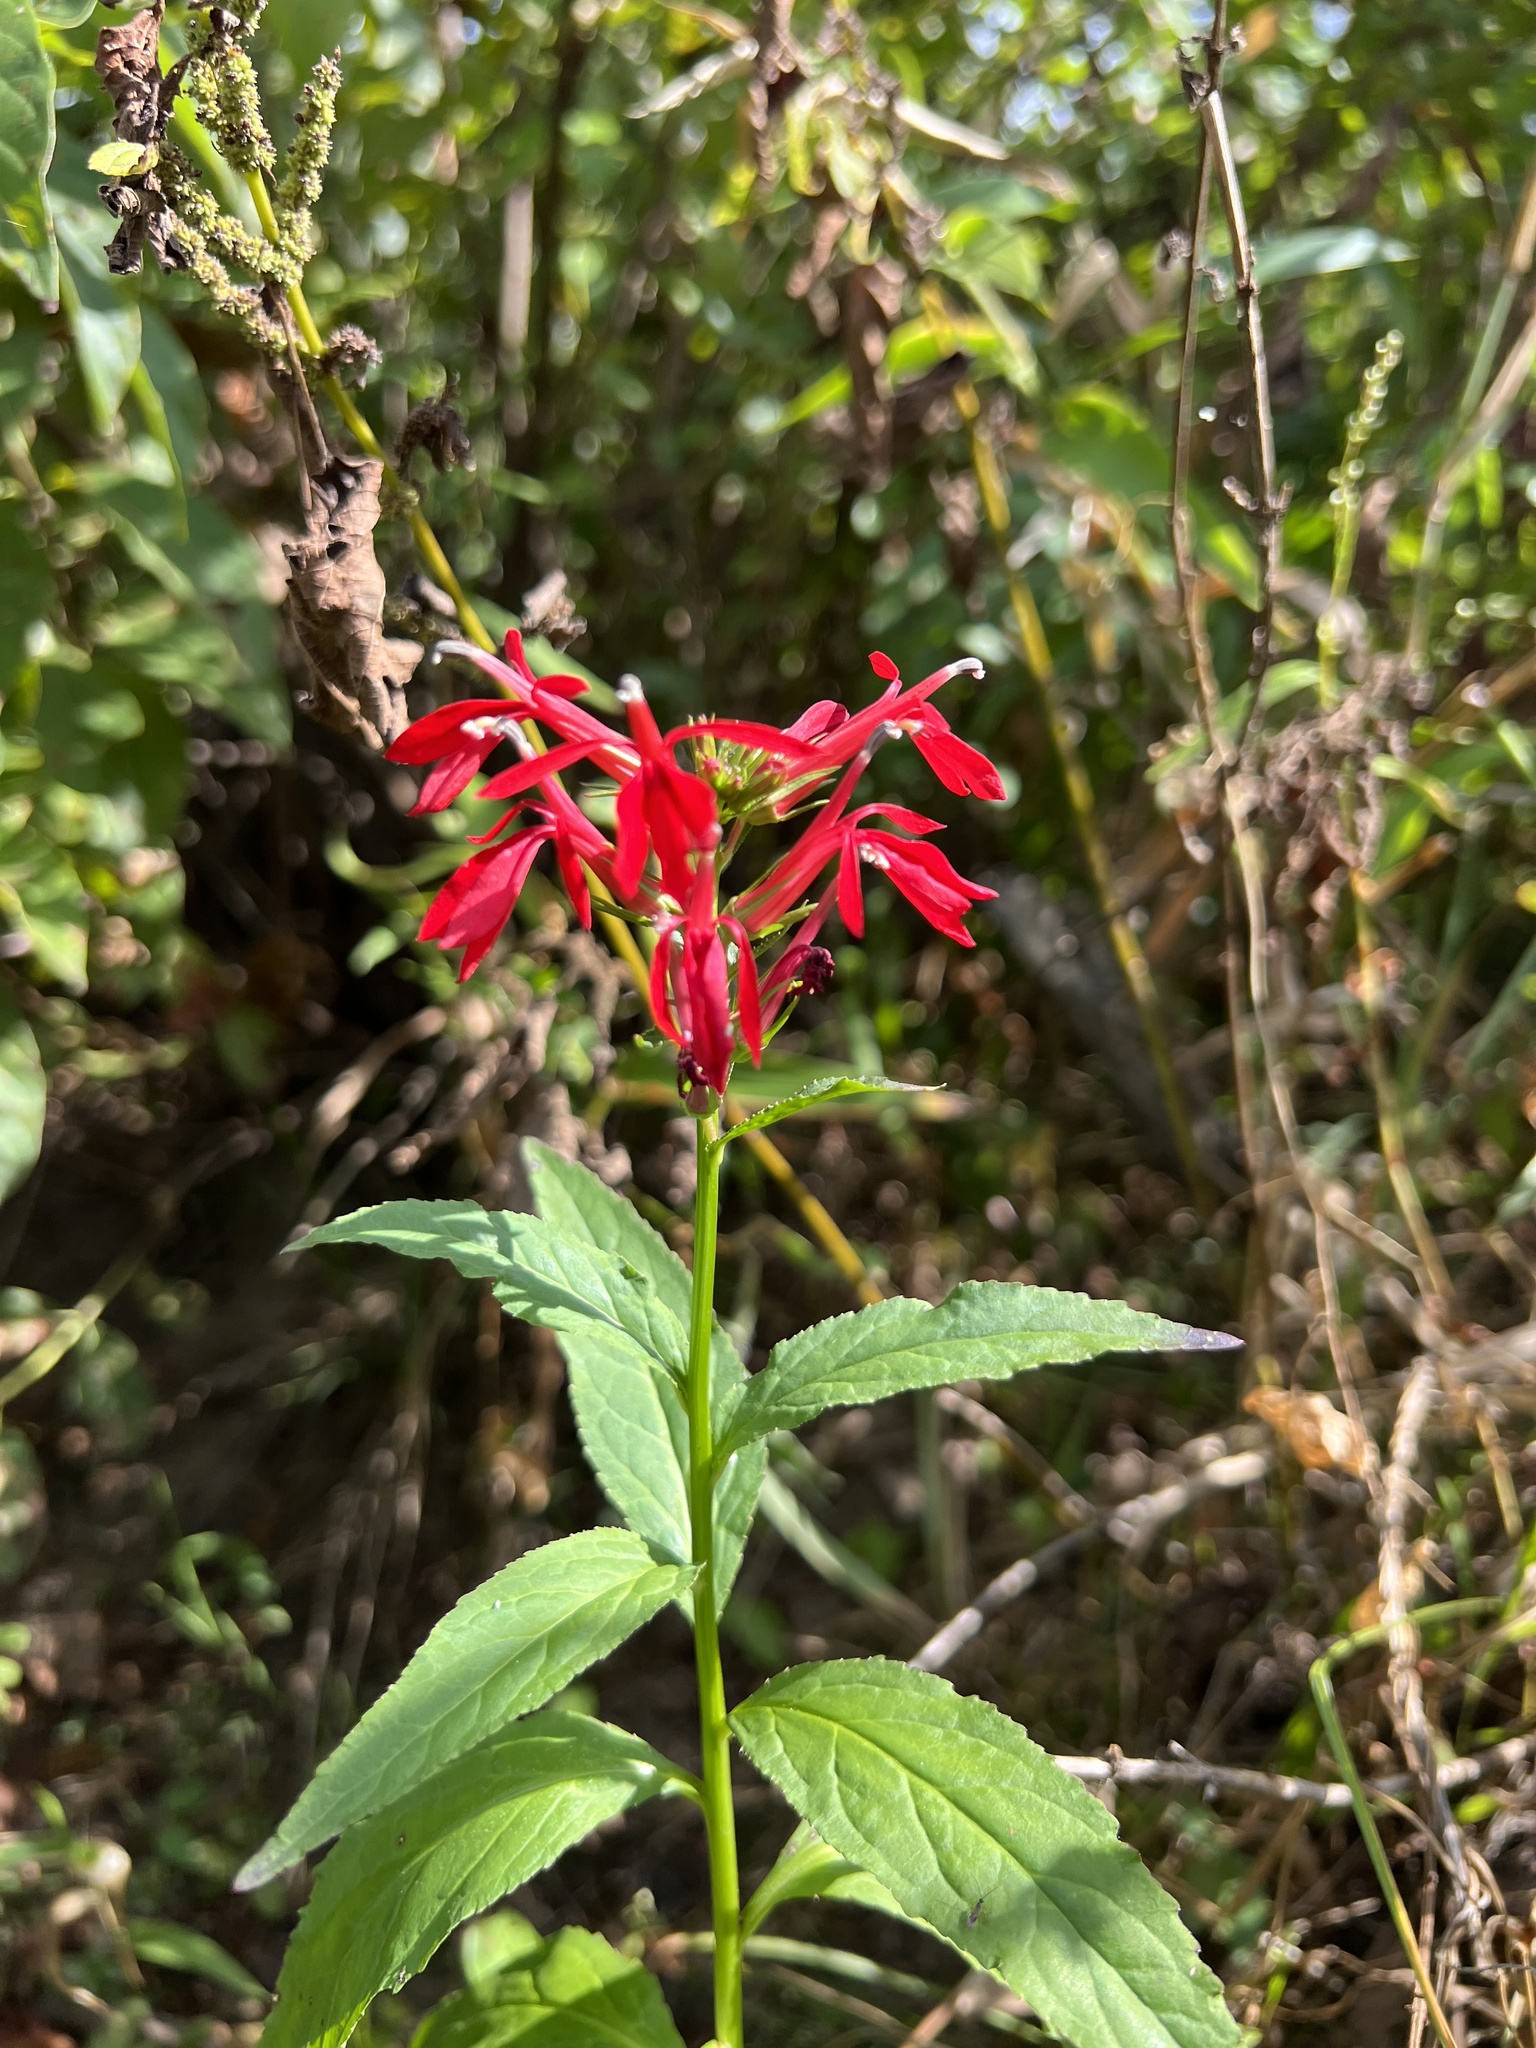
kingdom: Plantae
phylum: Tracheophyta
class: Magnoliopsida
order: Asterales
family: Campanulaceae
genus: Lobelia
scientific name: Lobelia cardinalis
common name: Cardinal flower
